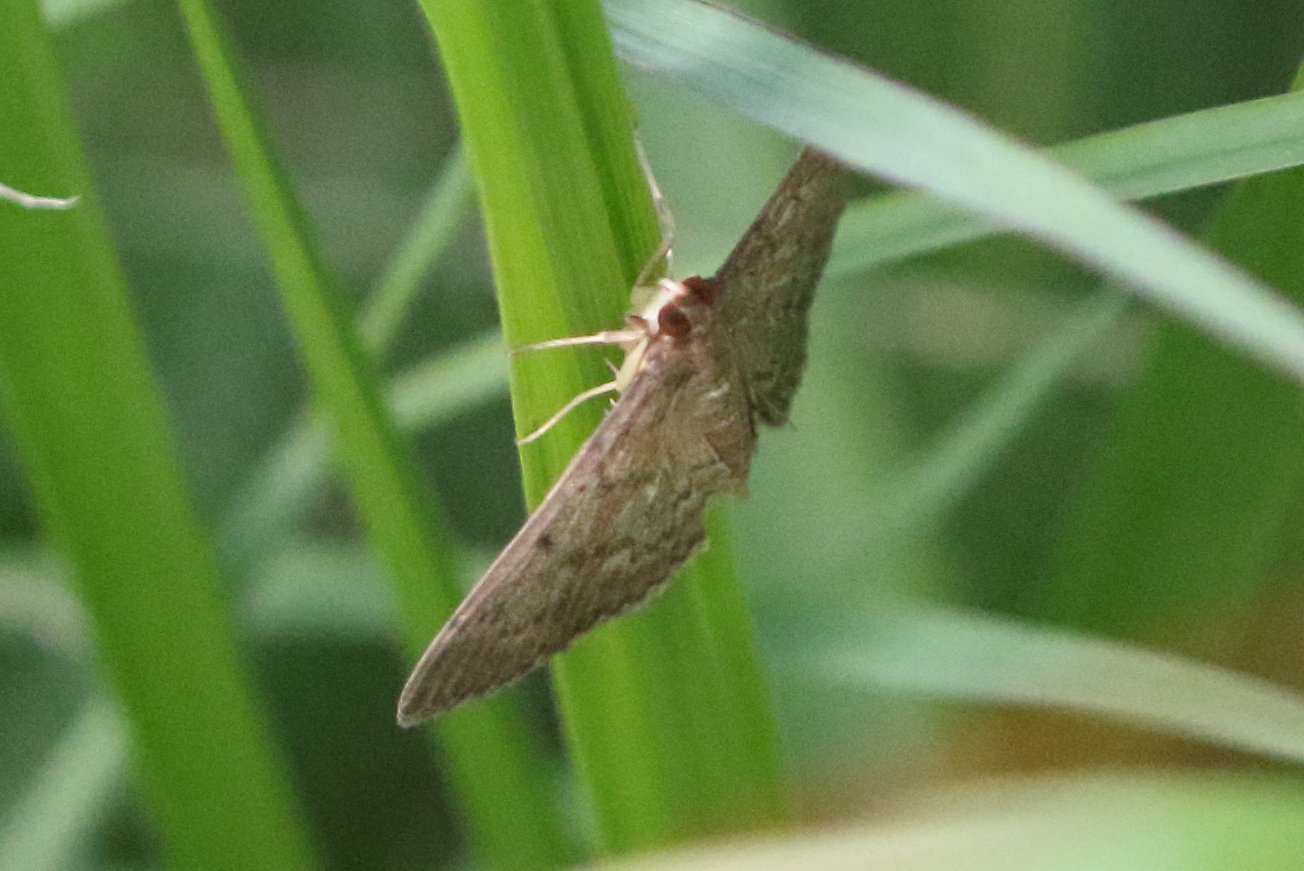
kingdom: Animalia
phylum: Arthropoda
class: Insecta
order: Lepidoptera
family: Crambidae
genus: Herpetogramma
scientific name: Herpetogramma licarsisalis
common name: Grass webworm
